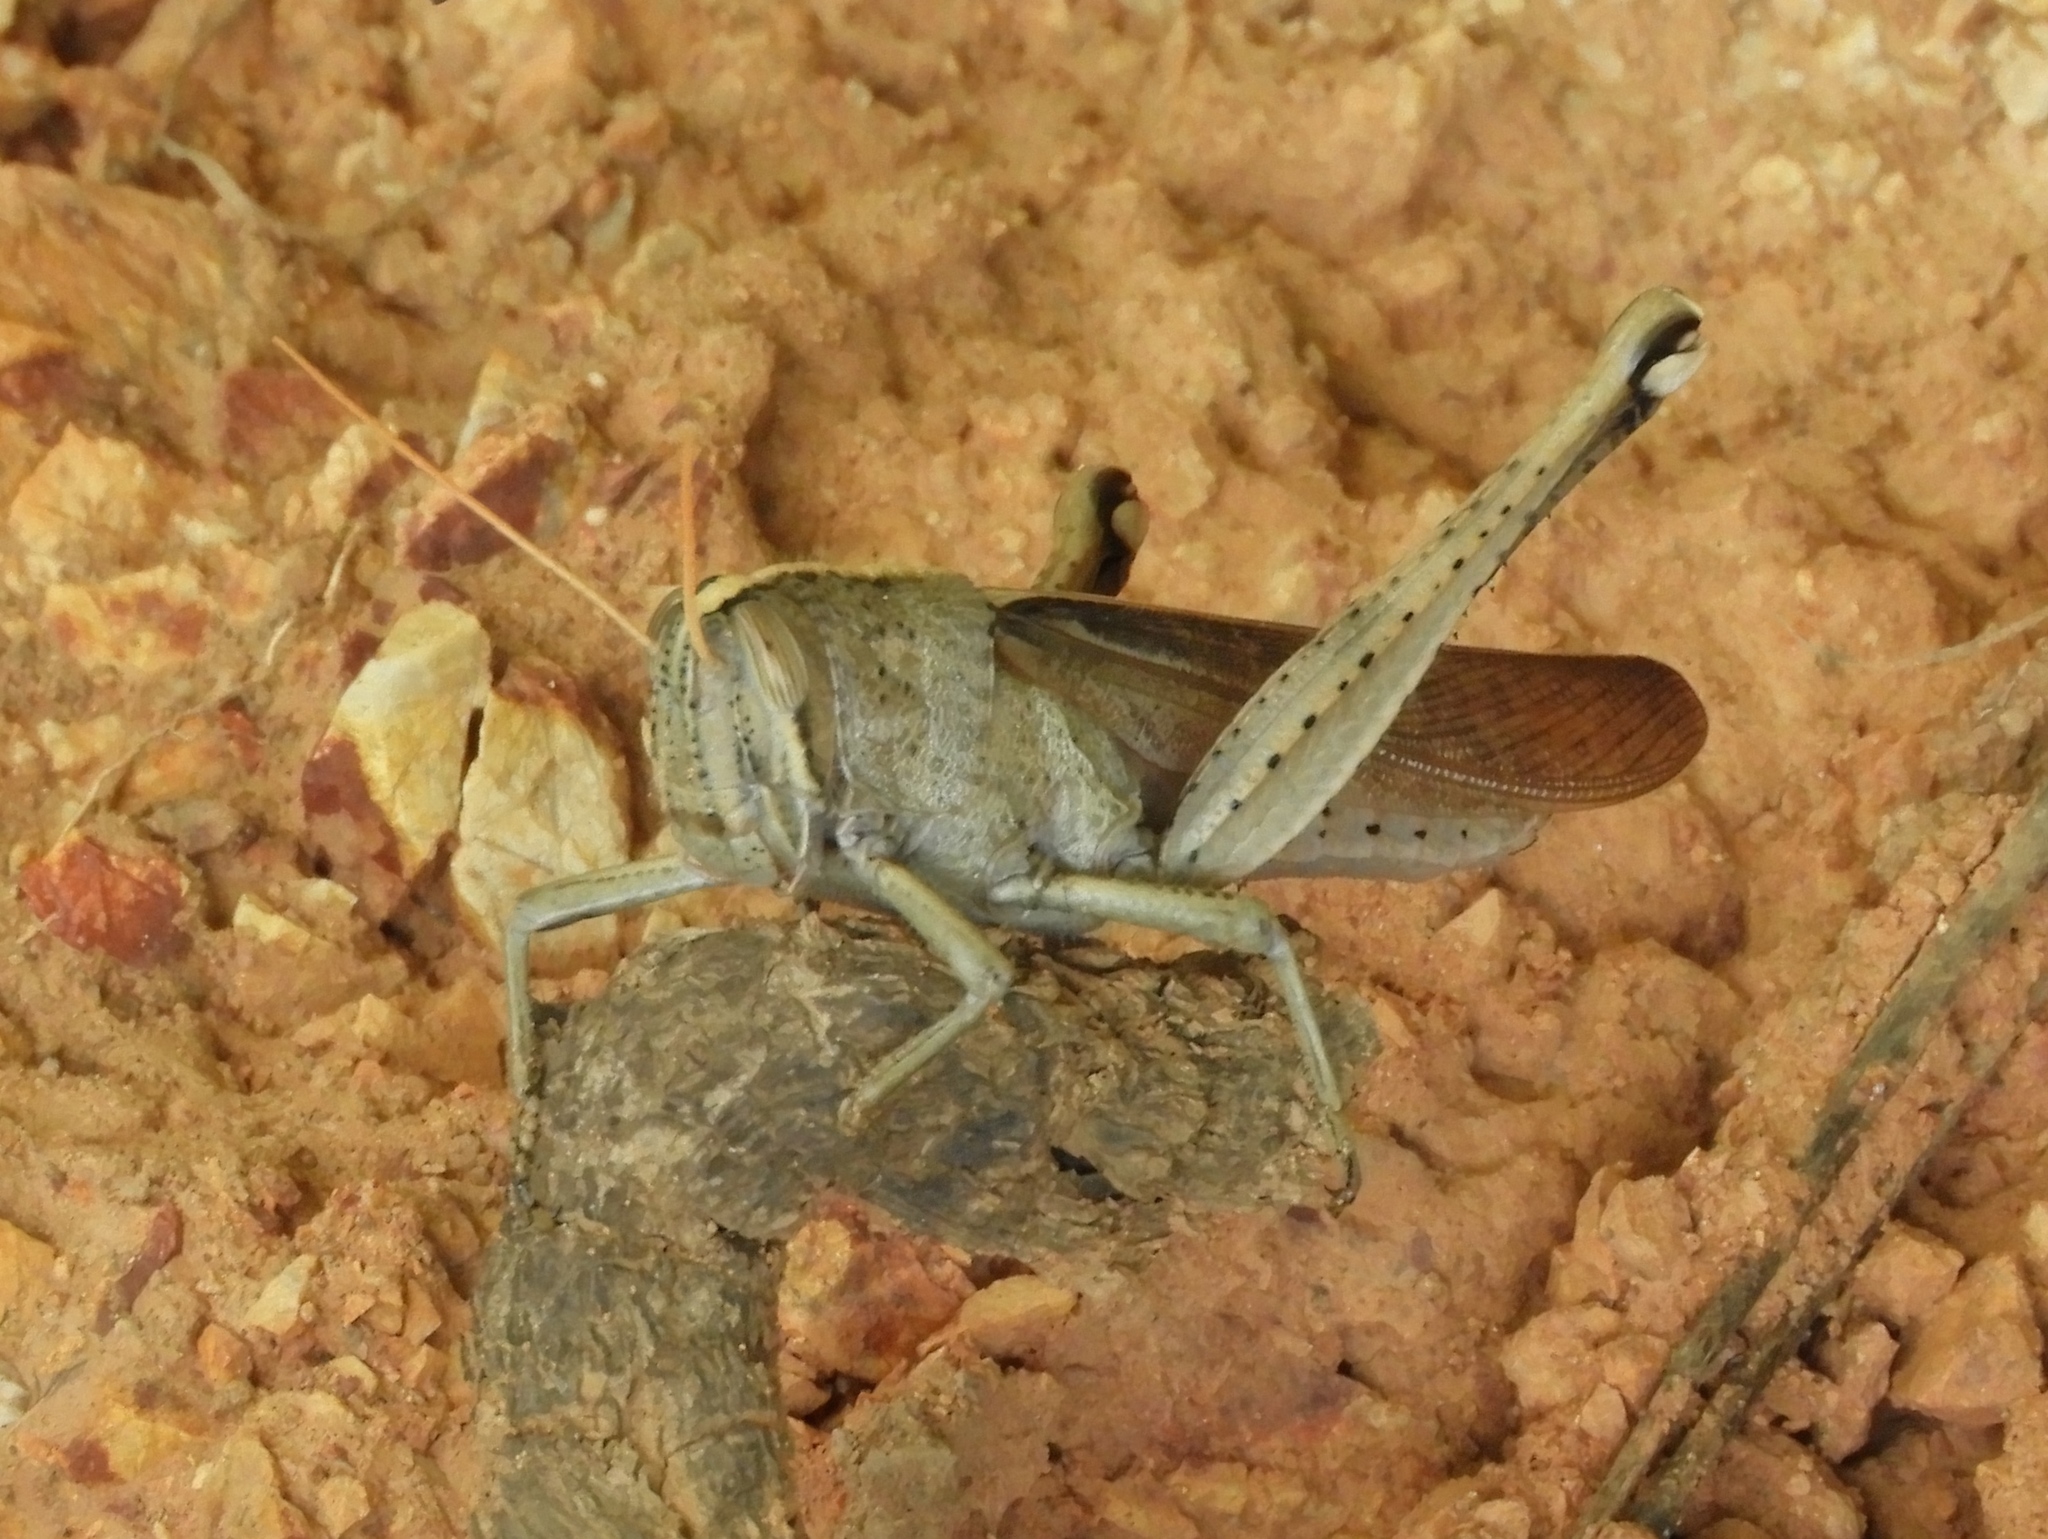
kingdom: Animalia
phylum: Arthropoda
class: Insecta
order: Orthoptera
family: Acrididae
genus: Schistocerca
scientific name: Schistocerca camerata
